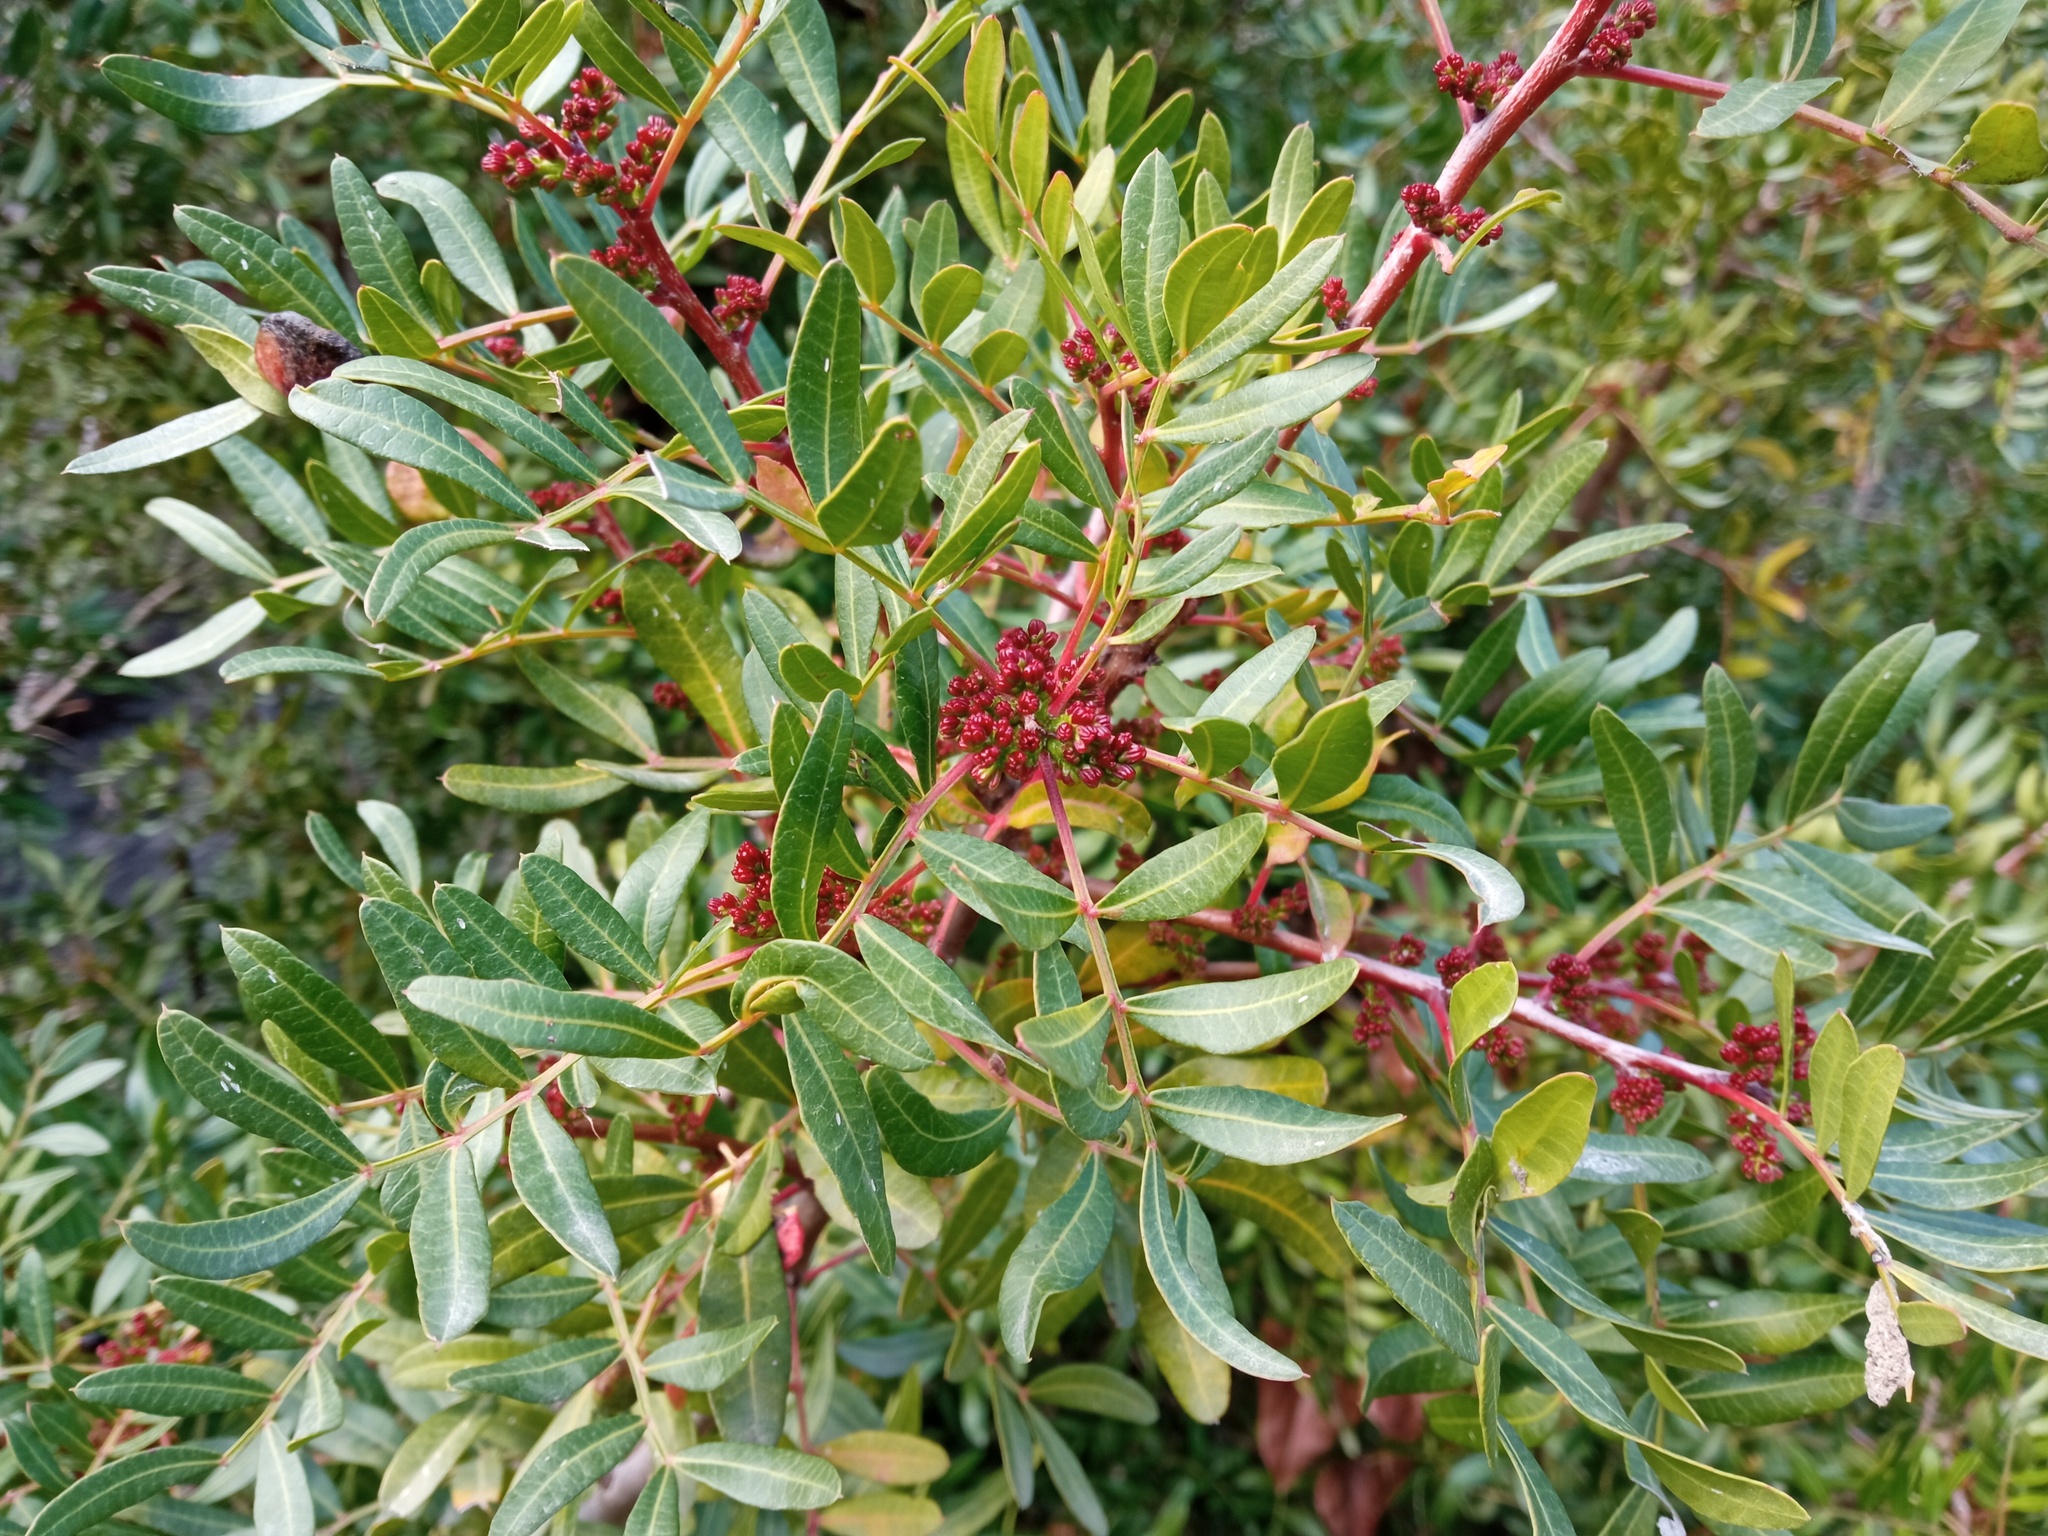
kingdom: Plantae
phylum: Tracheophyta
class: Magnoliopsida
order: Sapindales
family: Anacardiaceae
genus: Pistacia
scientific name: Pistacia lentiscus
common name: Lentisk
